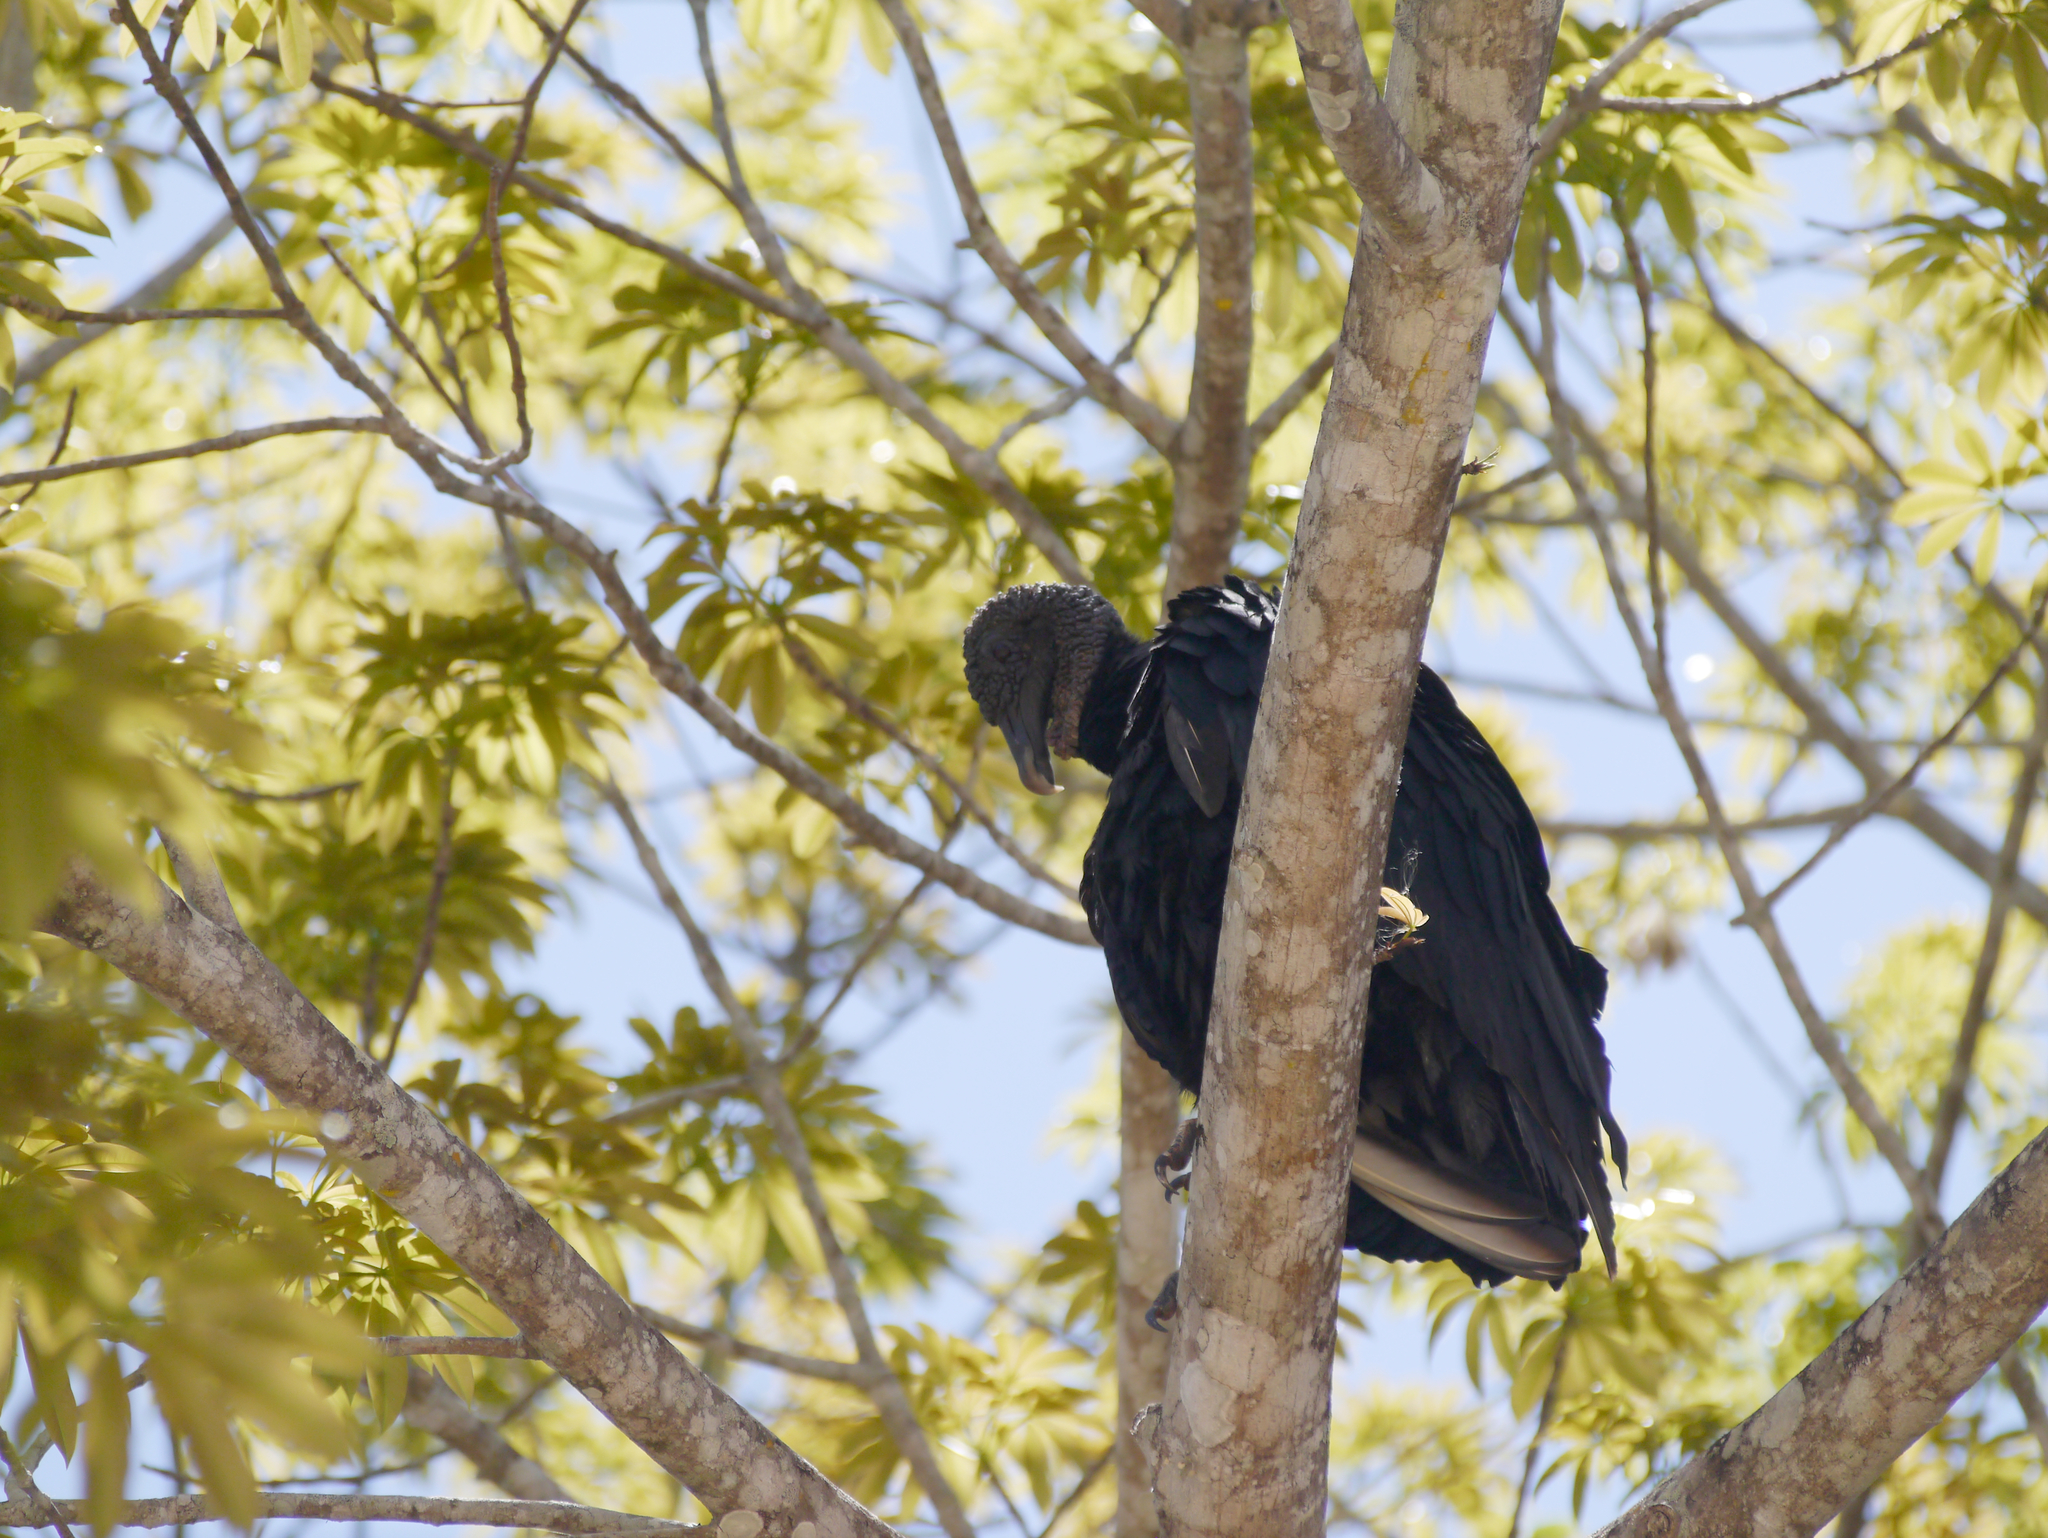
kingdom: Animalia
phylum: Chordata
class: Aves
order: Accipitriformes
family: Cathartidae
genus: Coragyps
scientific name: Coragyps atratus
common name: Black vulture
